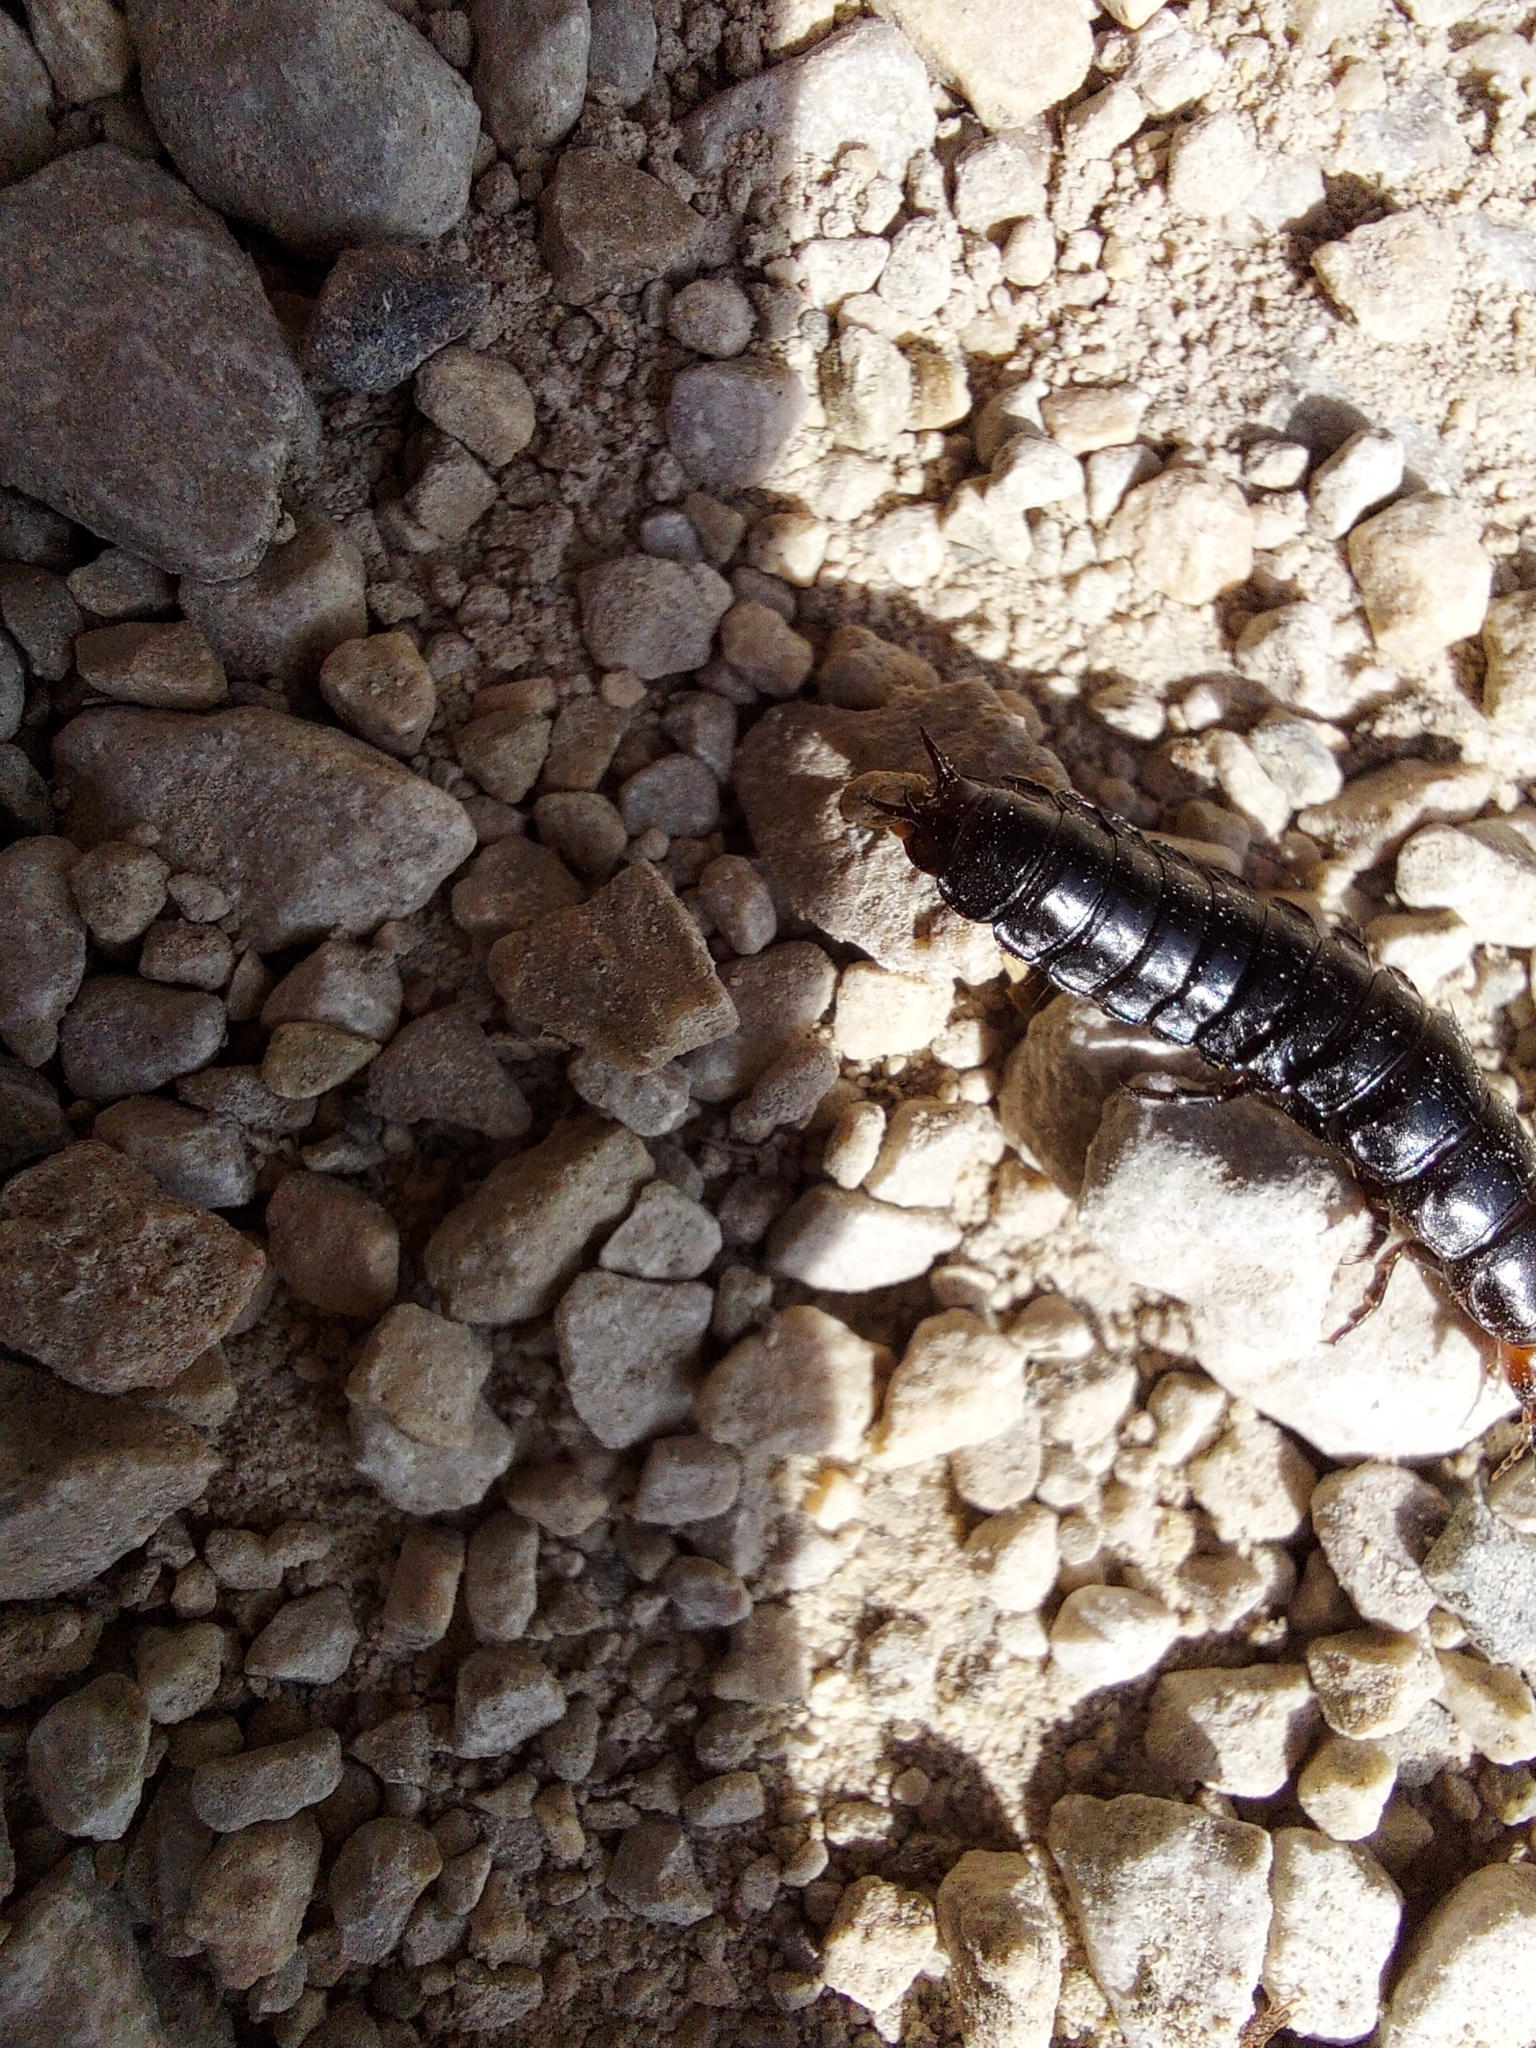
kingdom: Animalia
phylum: Arthropoda
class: Insecta
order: Coleoptera
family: Carabidae
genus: Carabus
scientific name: Carabus violaceus
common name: Violet ground beetle
